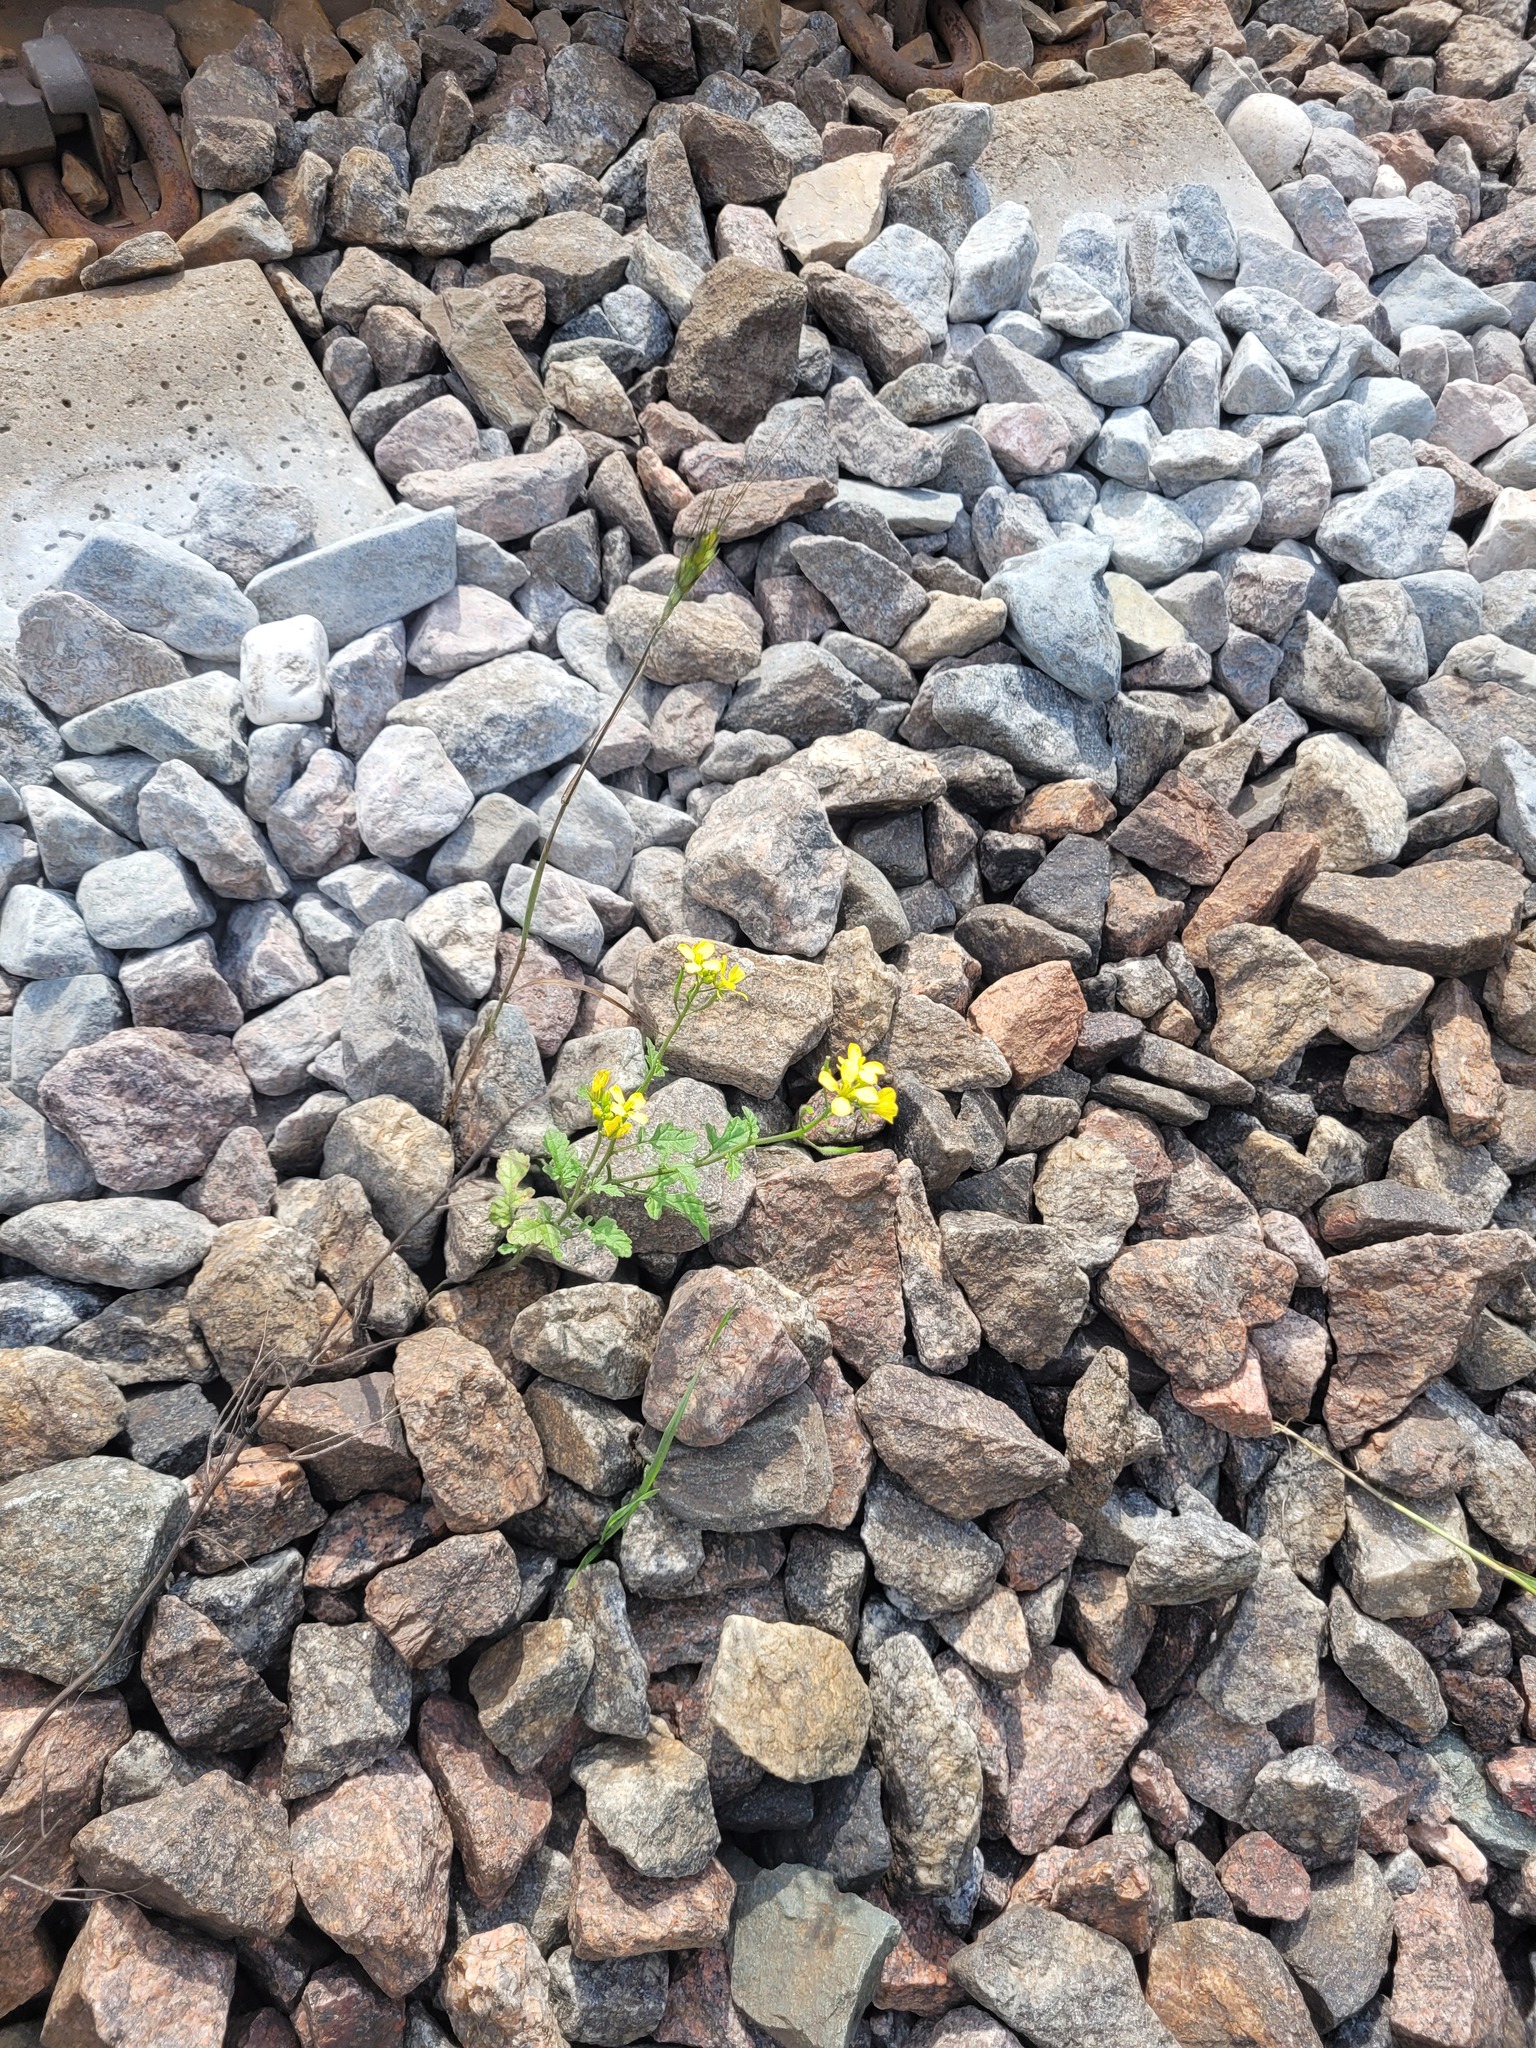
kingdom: Plantae
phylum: Tracheophyta
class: Magnoliopsida
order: Brassicales
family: Brassicaceae
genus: Sinapis
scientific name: Sinapis alba
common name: White mustard
